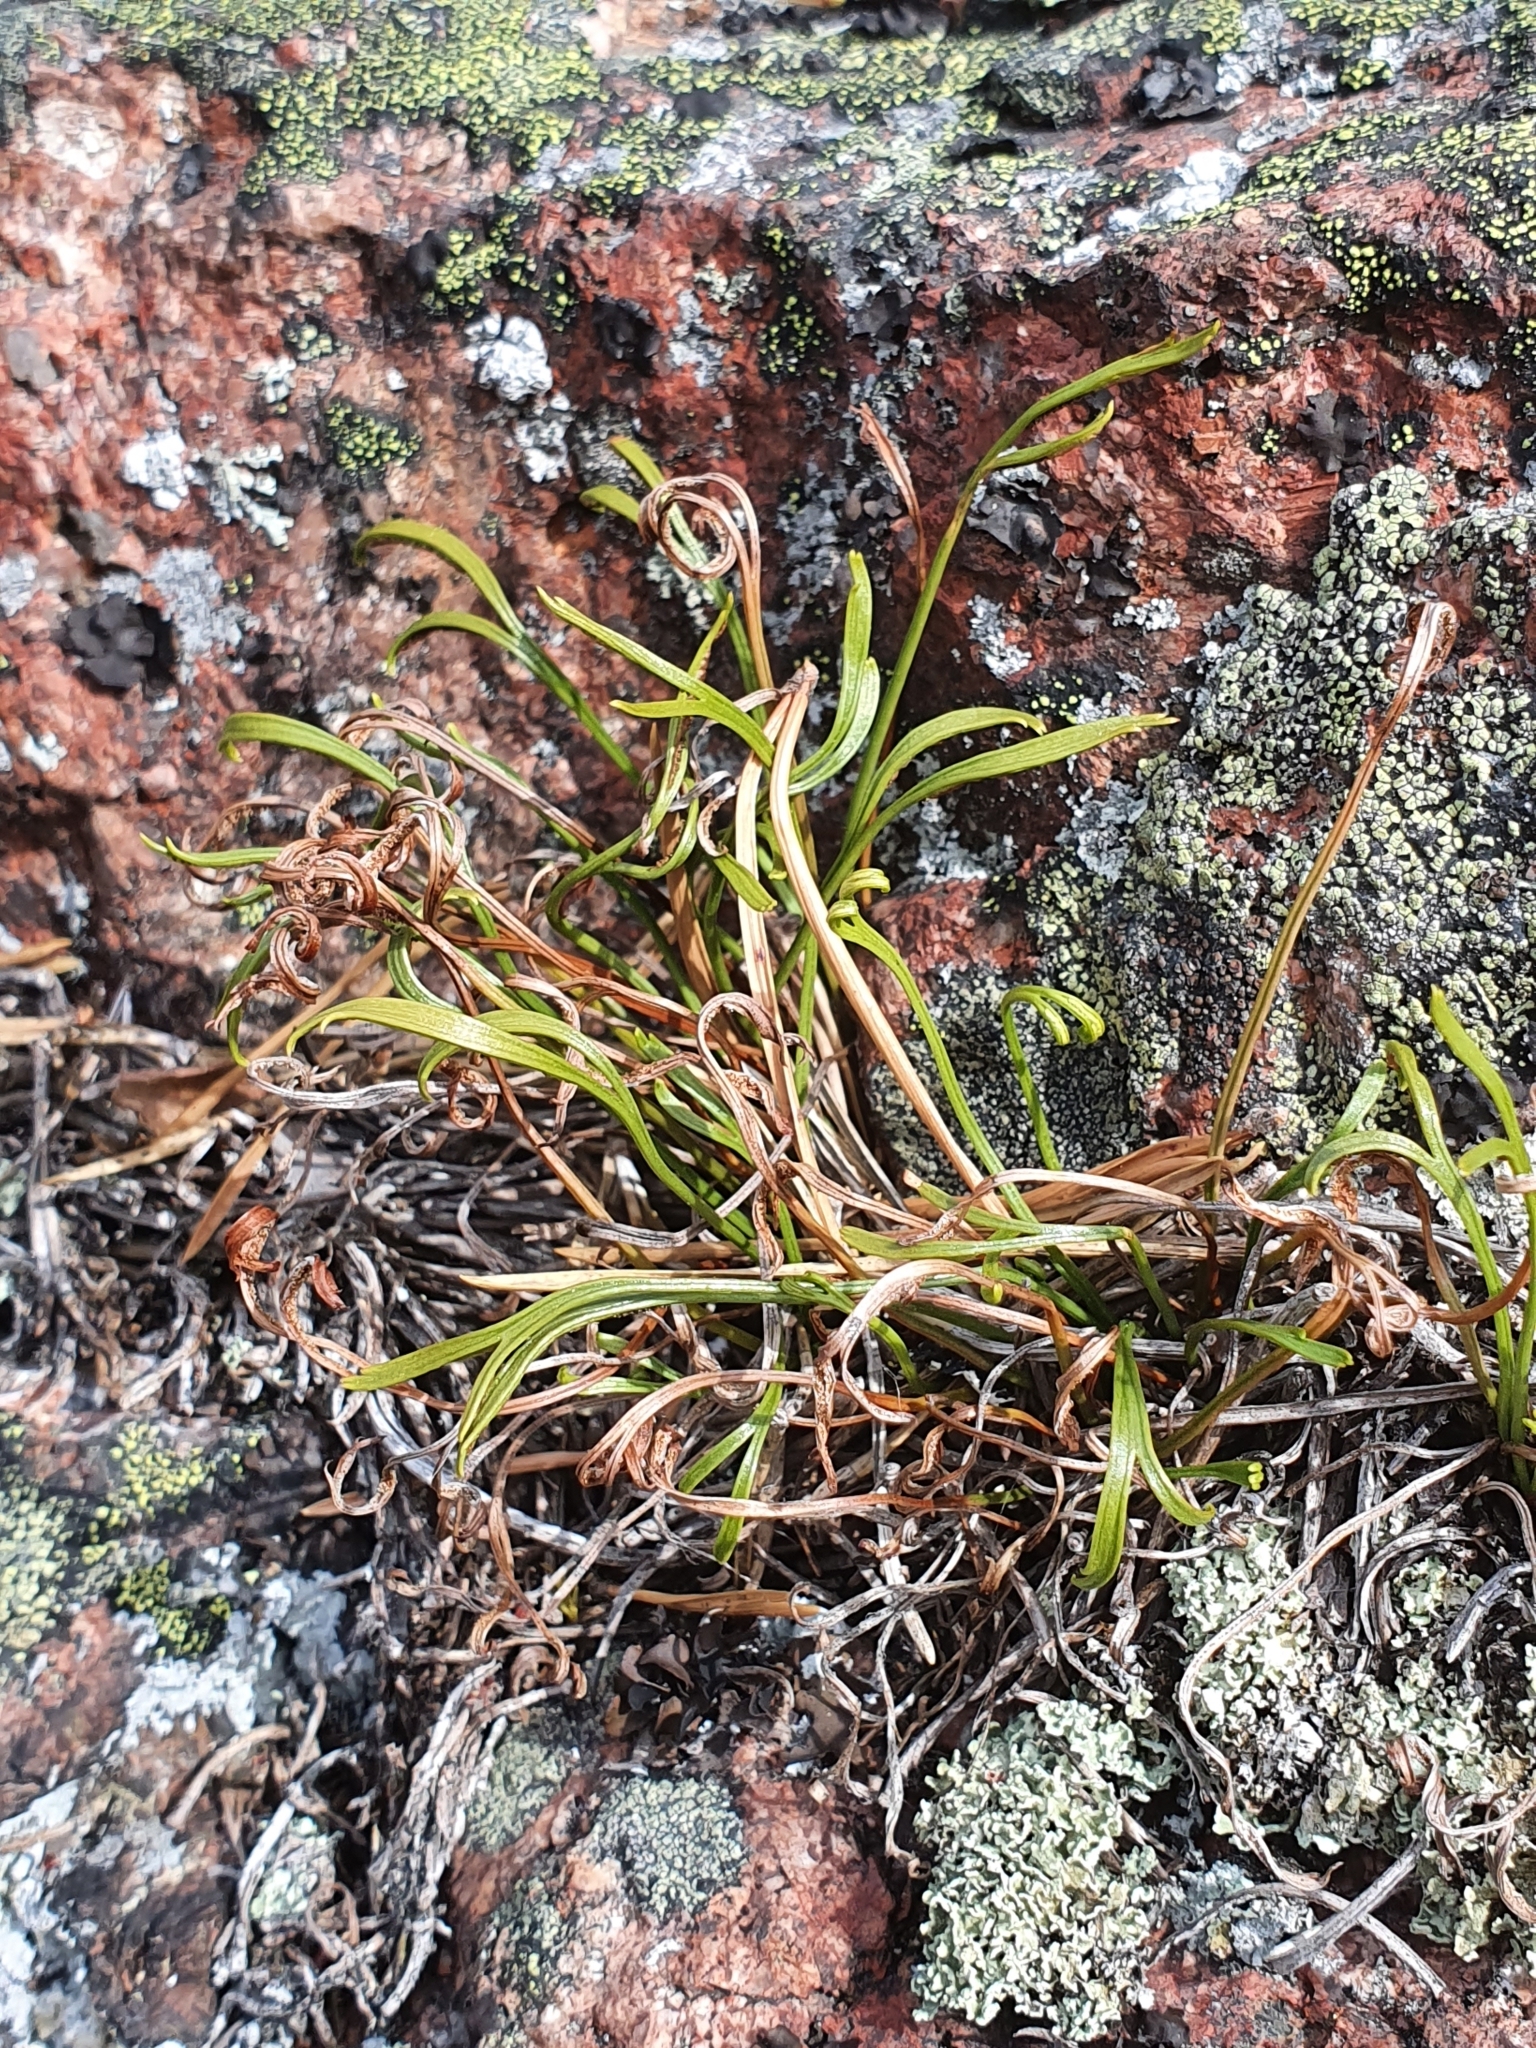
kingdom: Plantae
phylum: Tracheophyta
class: Polypodiopsida
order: Polypodiales
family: Aspleniaceae
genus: Asplenium
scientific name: Asplenium septentrionale
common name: Forked spleenwort
